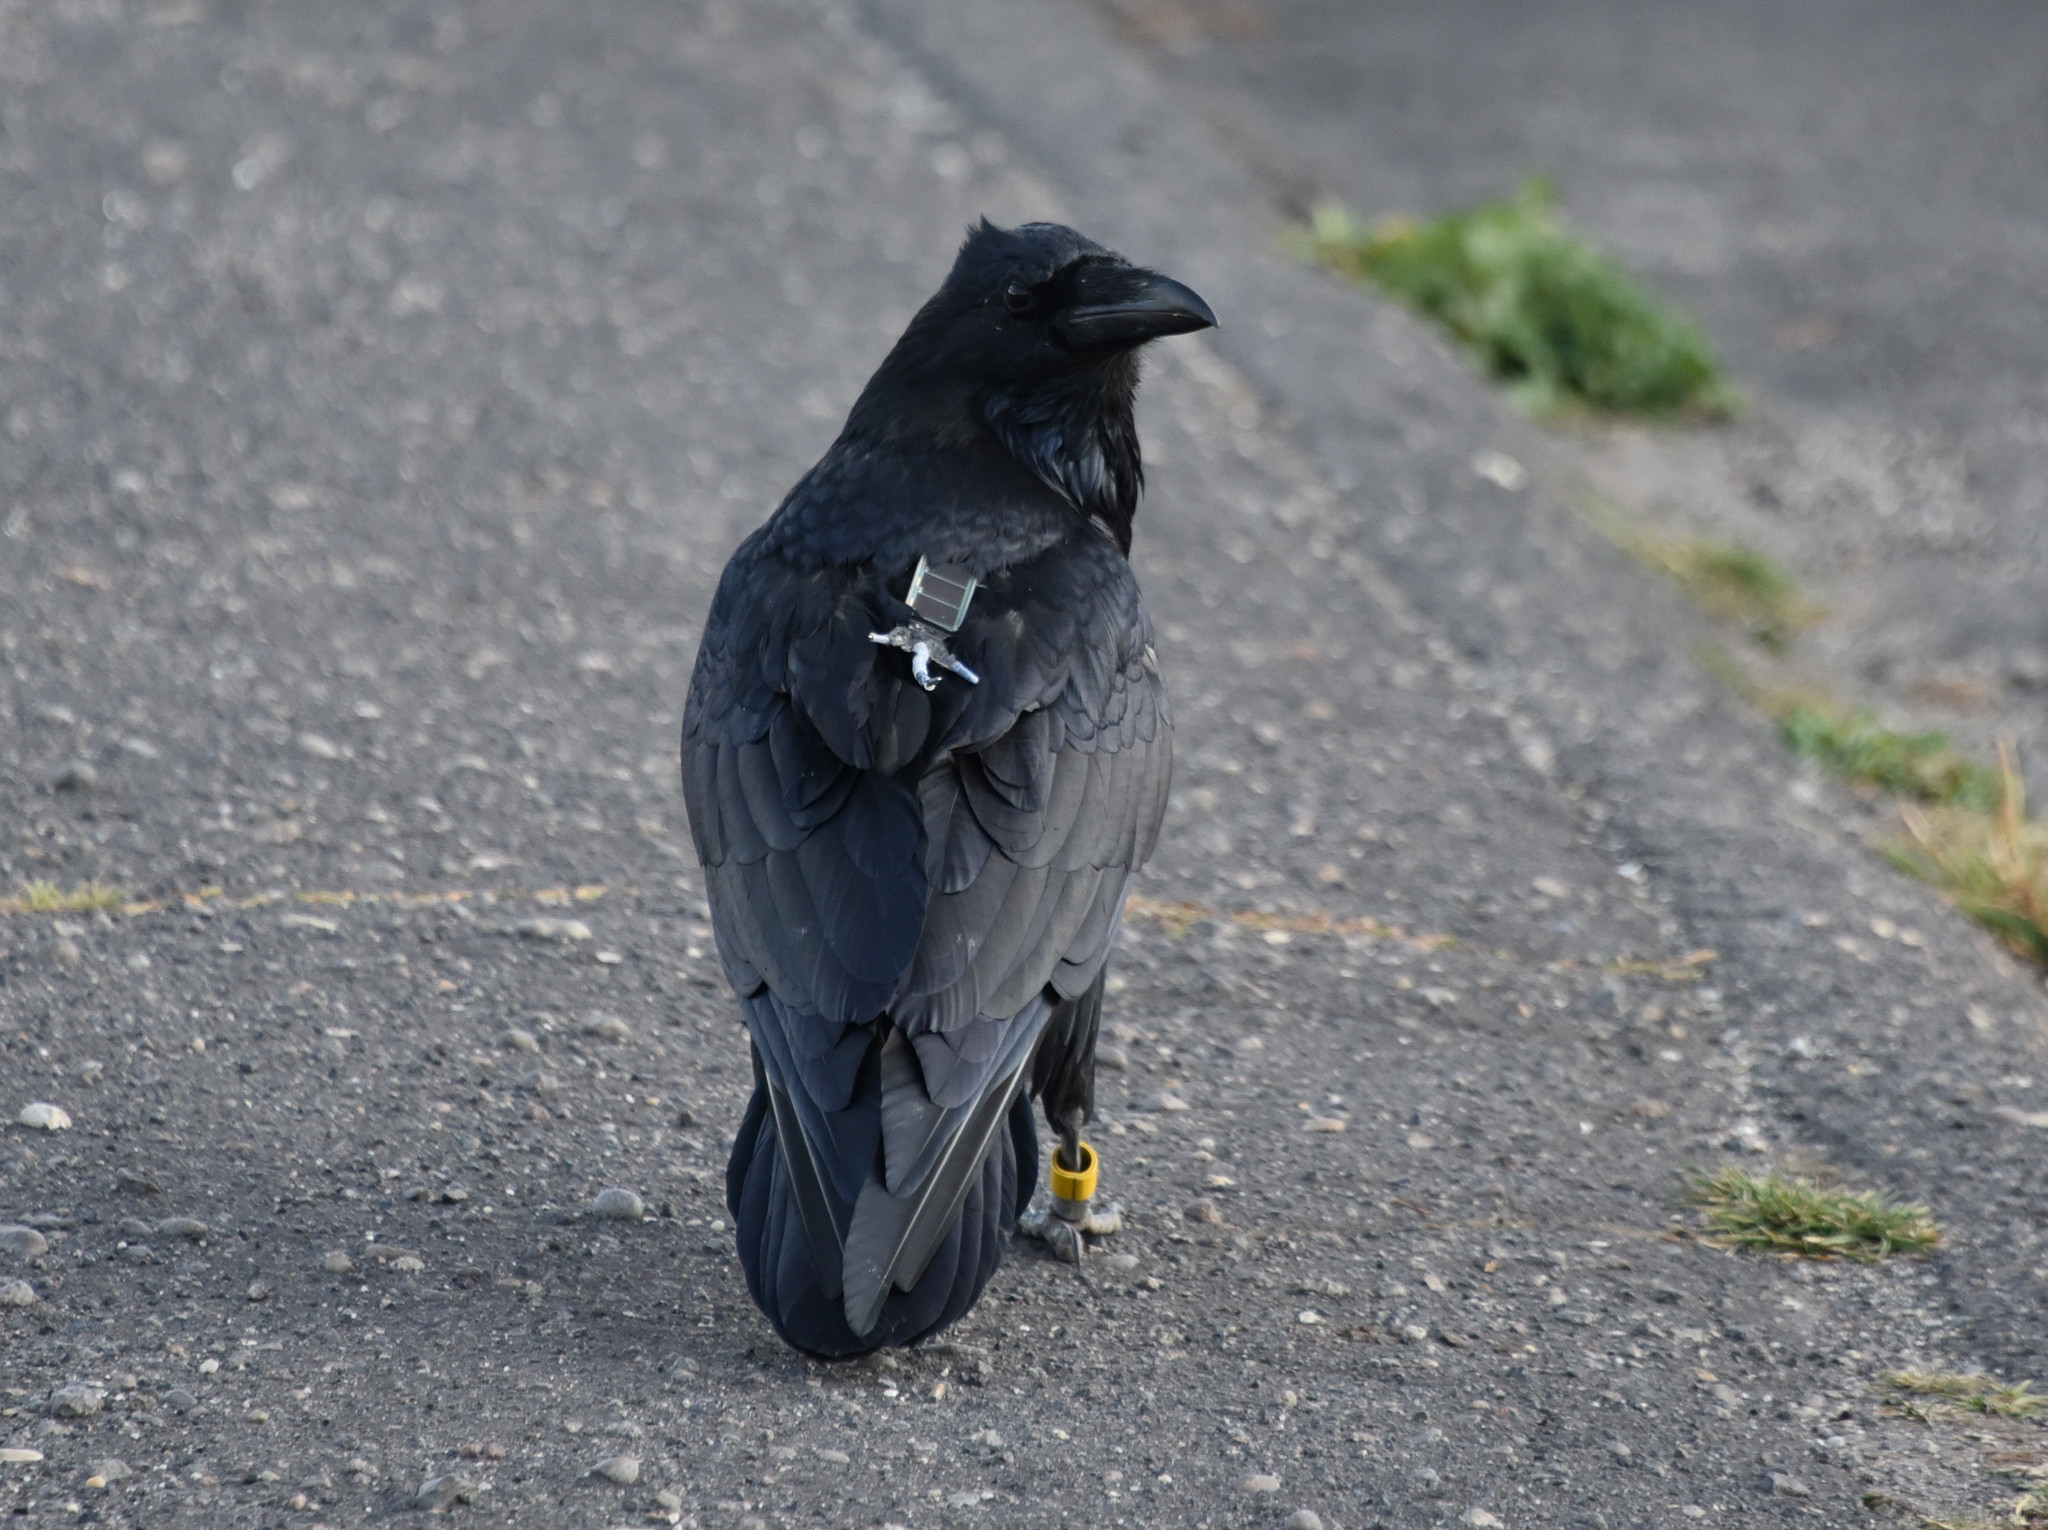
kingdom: Animalia
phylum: Chordata
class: Aves
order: Passeriformes
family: Corvidae
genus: Corvus
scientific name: Corvus corax
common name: Common raven
